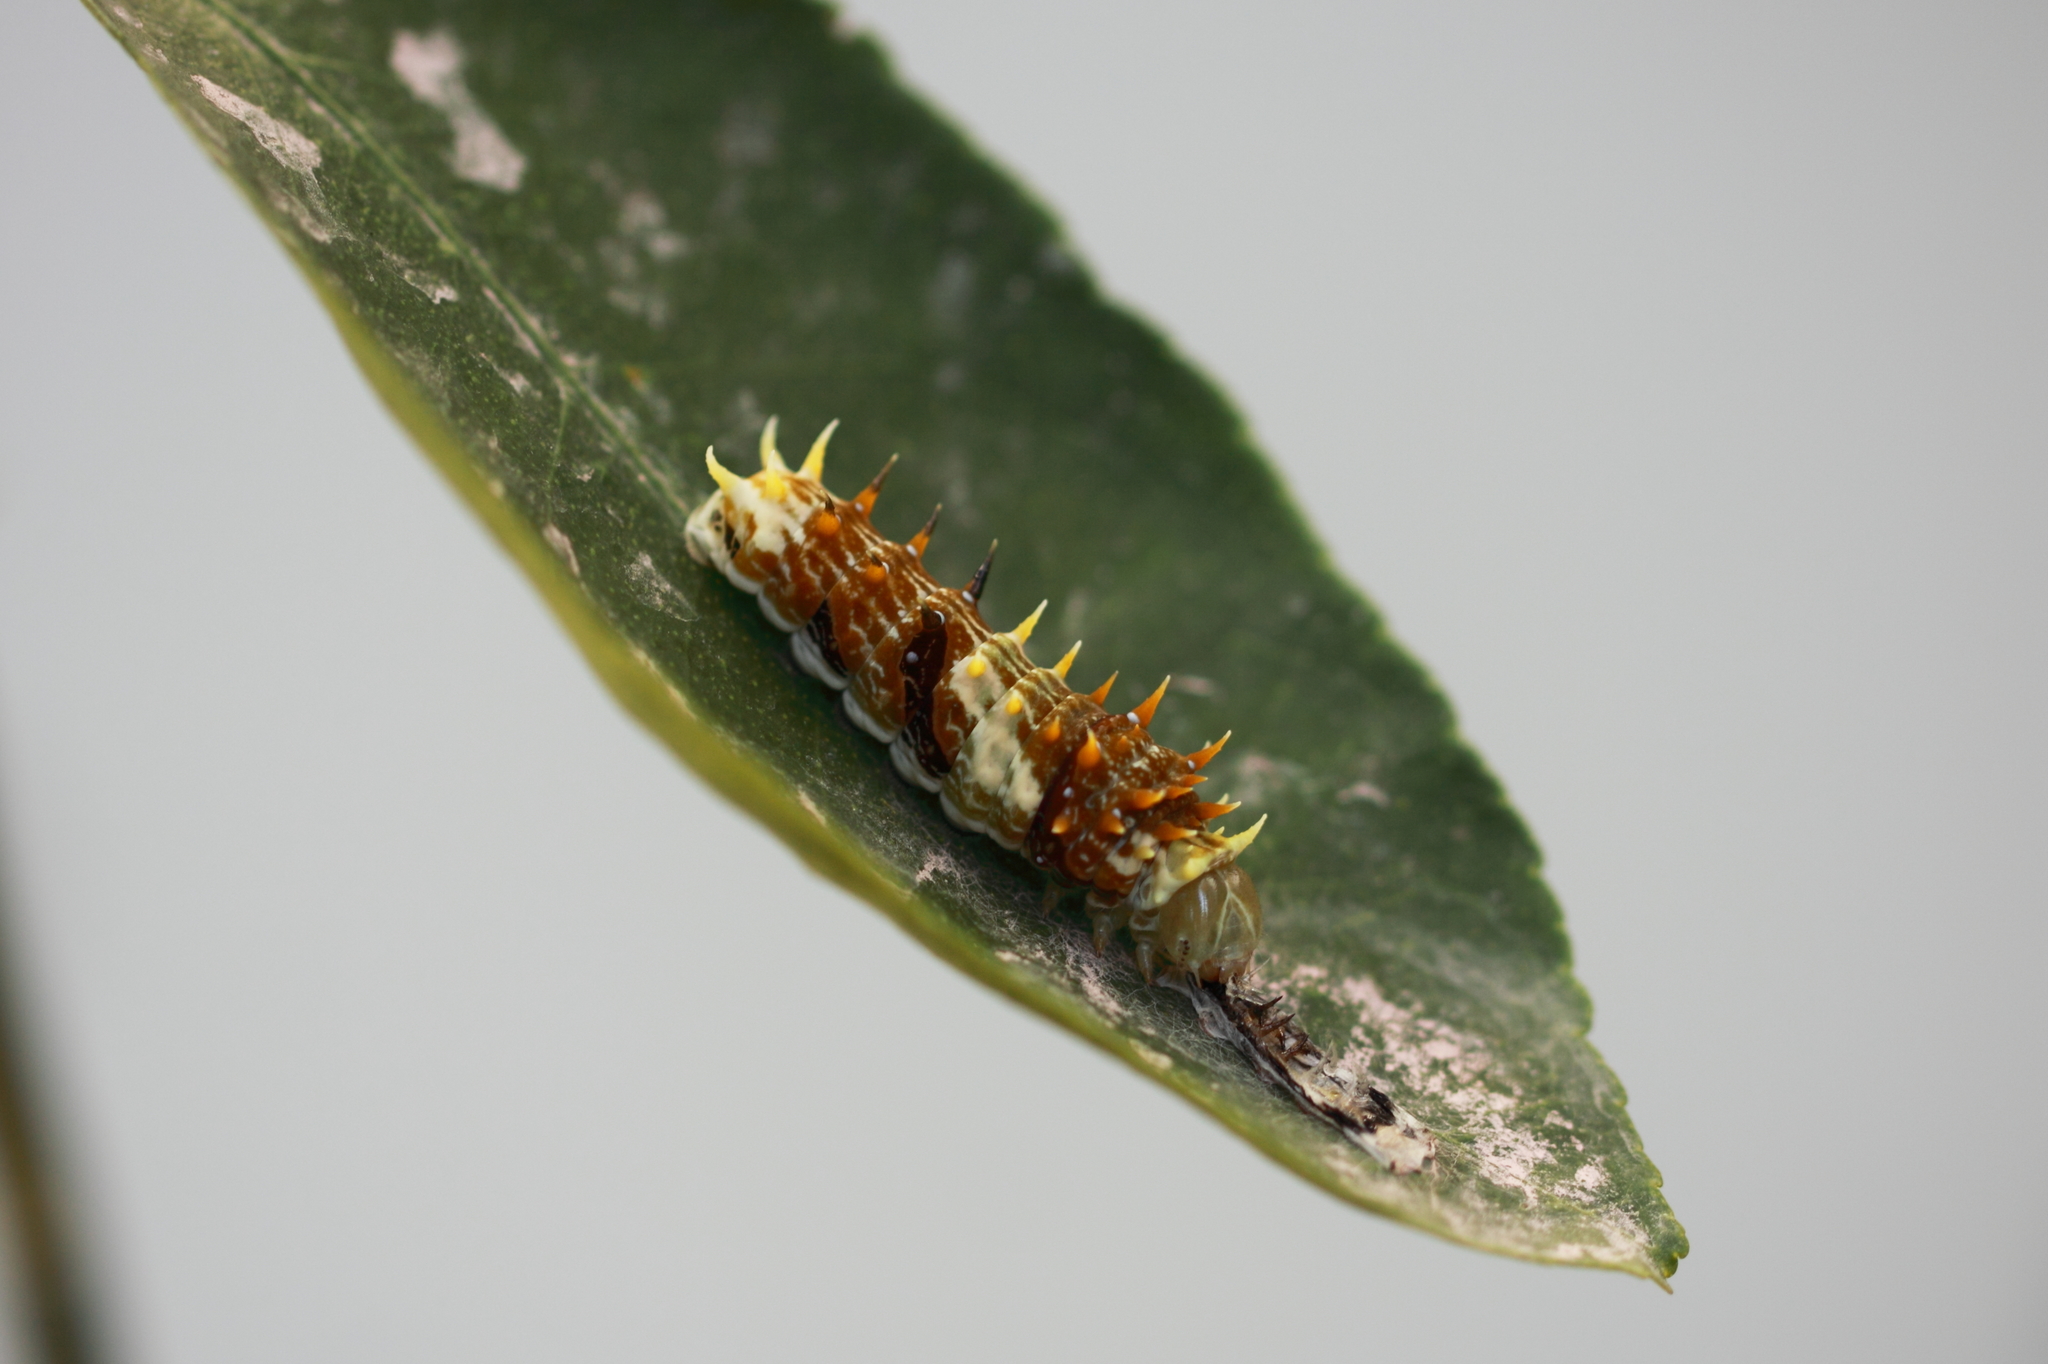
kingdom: Animalia
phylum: Arthropoda
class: Insecta
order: Lepidoptera
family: Papilionidae
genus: Papilio
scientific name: Papilio aegeus
